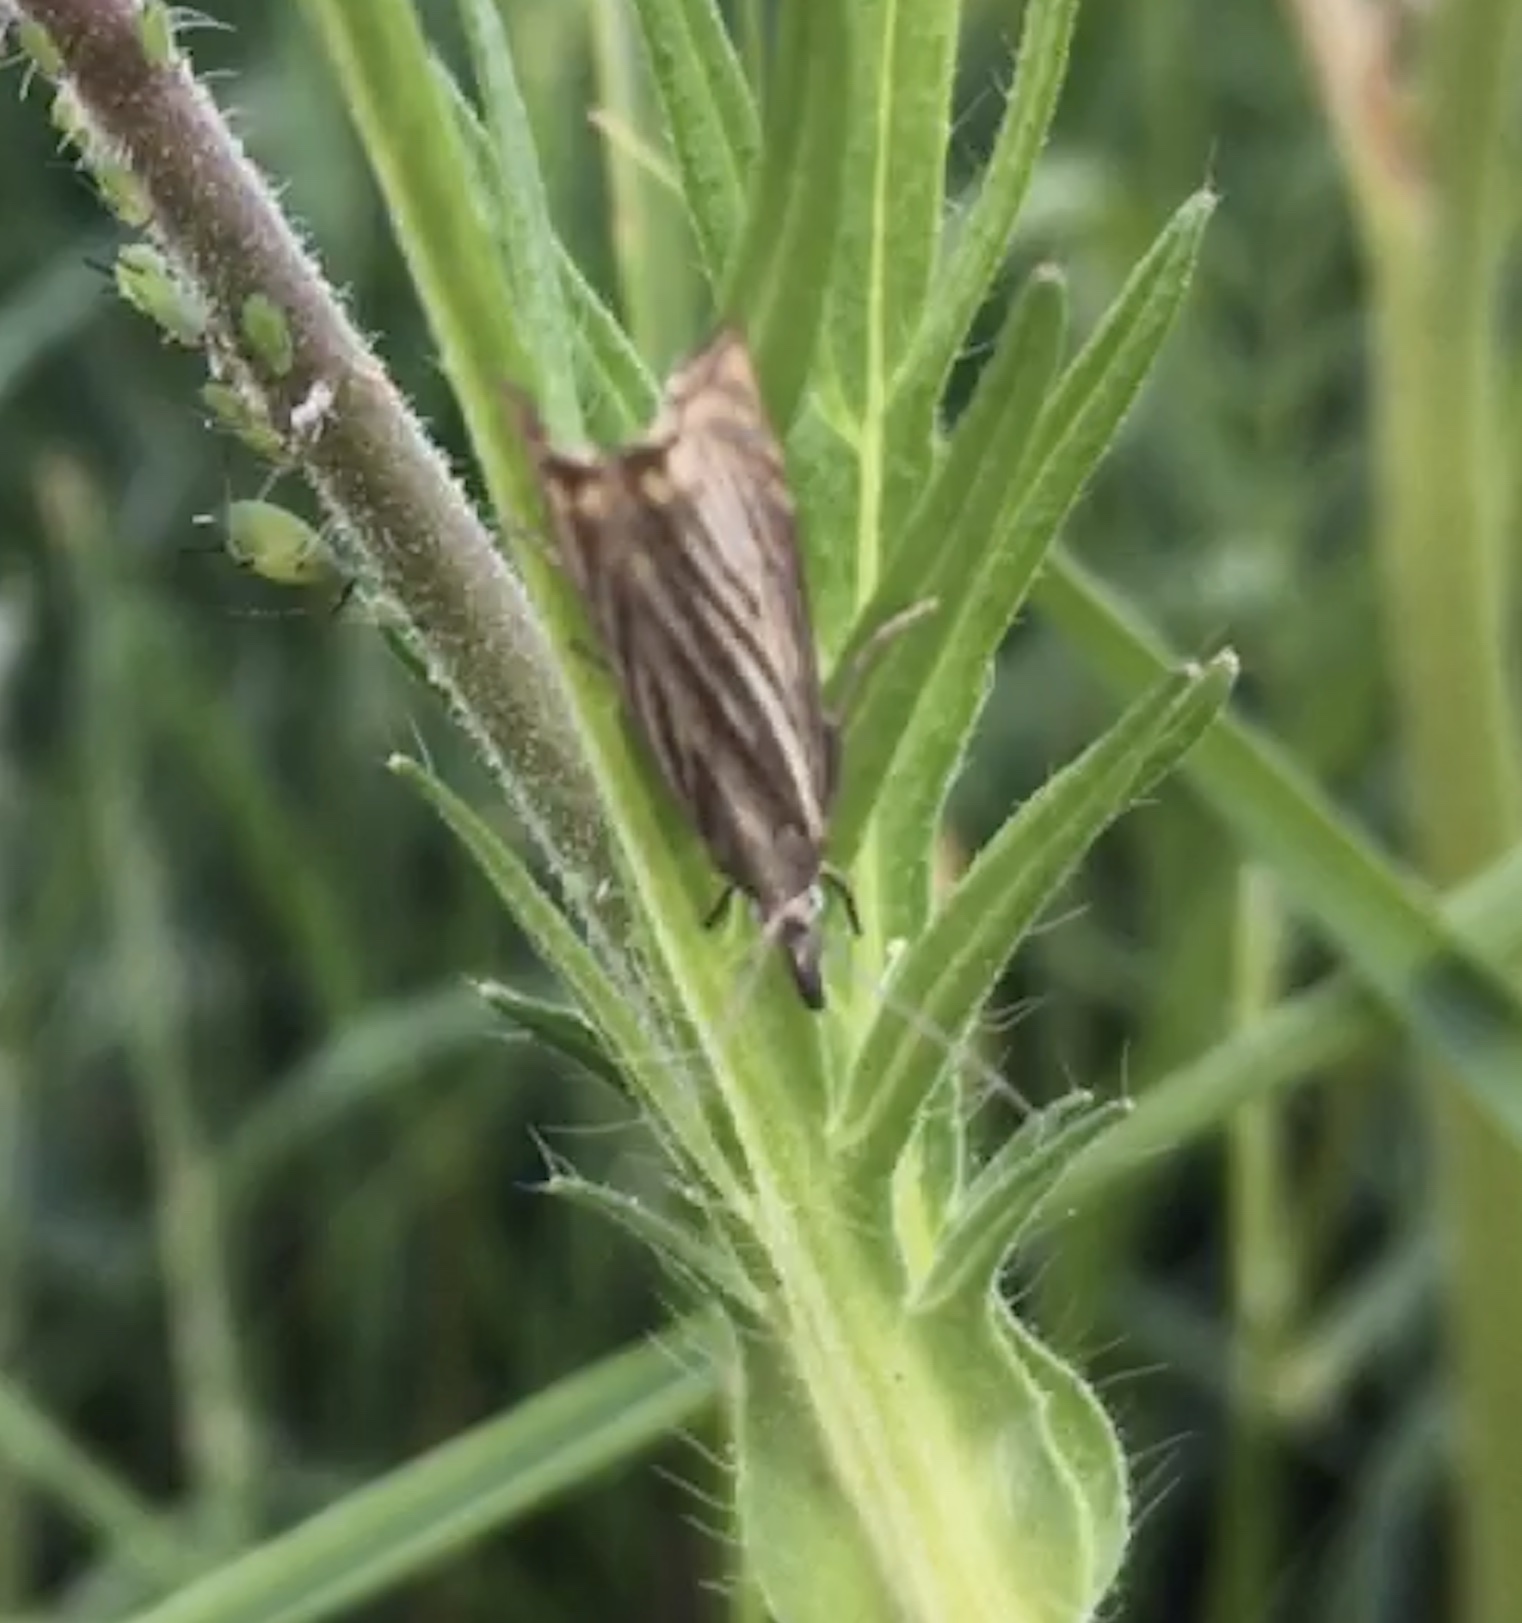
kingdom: Animalia
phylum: Arthropoda
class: Insecta
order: Lepidoptera
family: Crambidae
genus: Chrysoteuchia
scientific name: Chrysoteuchia culmella
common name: Garden grass-veneer
